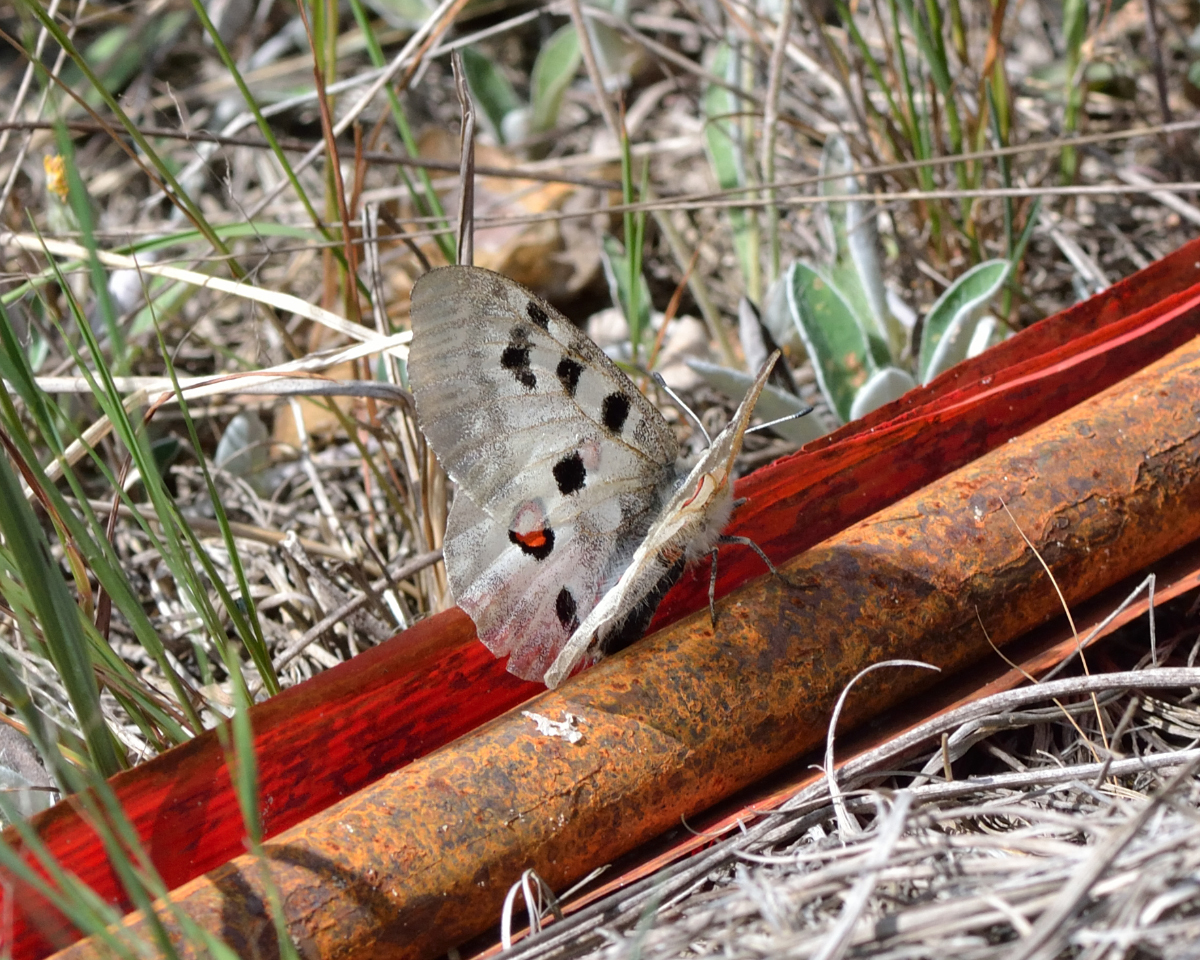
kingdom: Animalia
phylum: Arthropoda
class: Insecta
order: Lepidoptera
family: Papilionidae
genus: Parnassius
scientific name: Parnassius apollo
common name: Apollo
